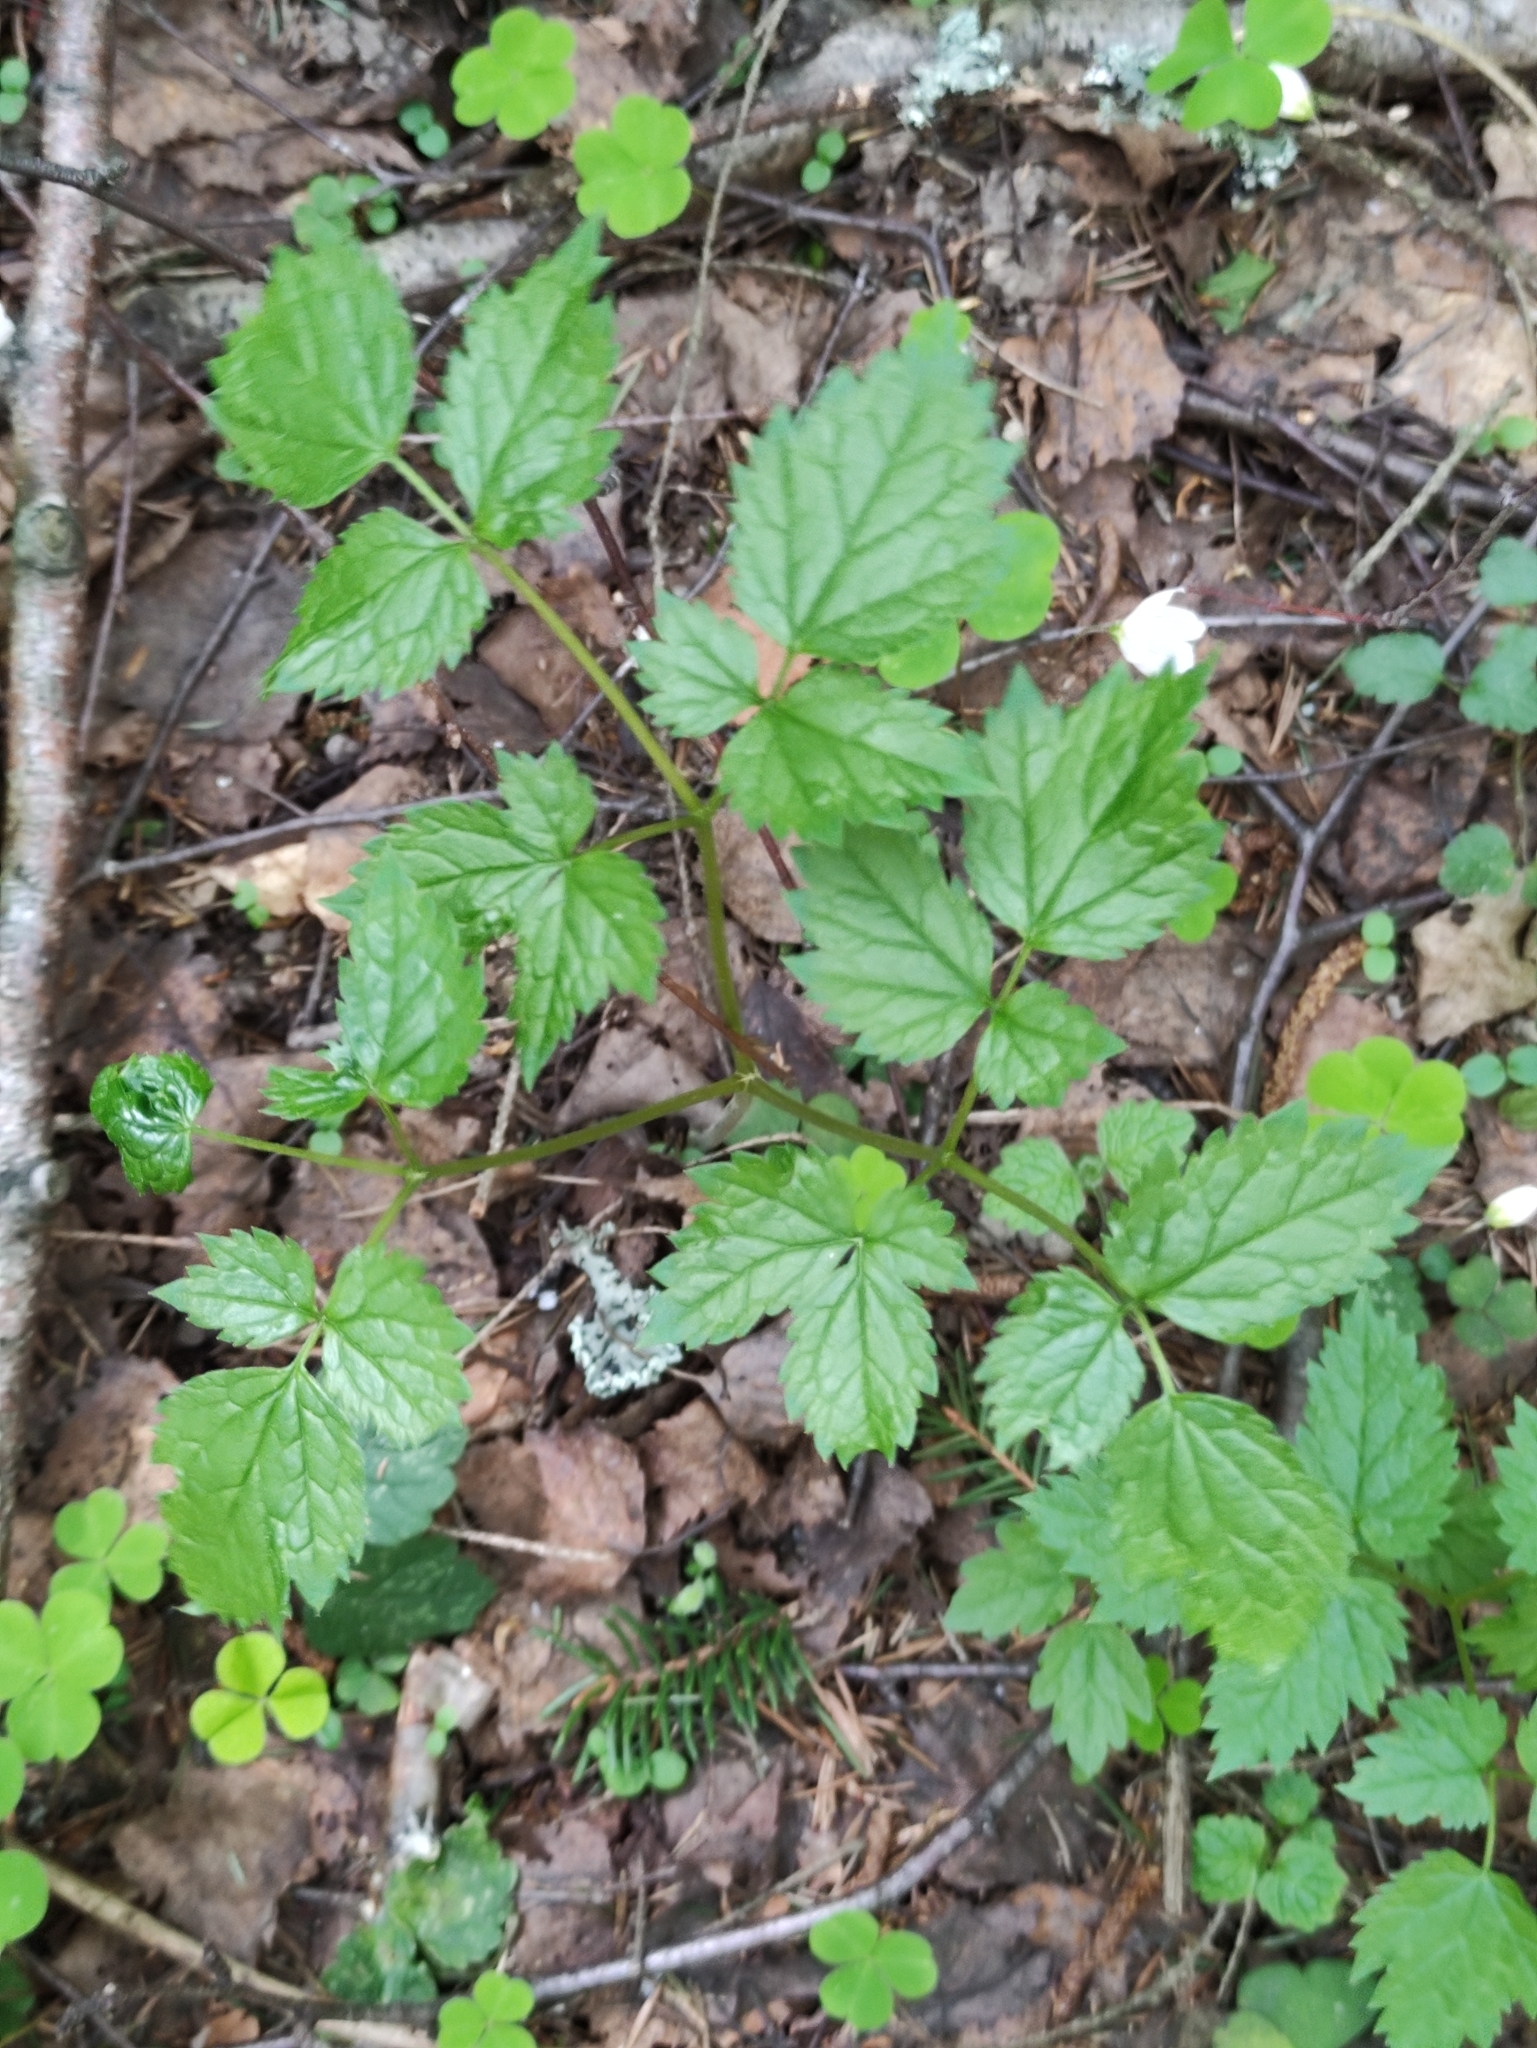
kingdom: Plantae
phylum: Tracheophyta
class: Magnoliopsida
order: Ranunculales
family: Ranunculaceae
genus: Actaea
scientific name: Actaea spicata
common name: Baneberry
